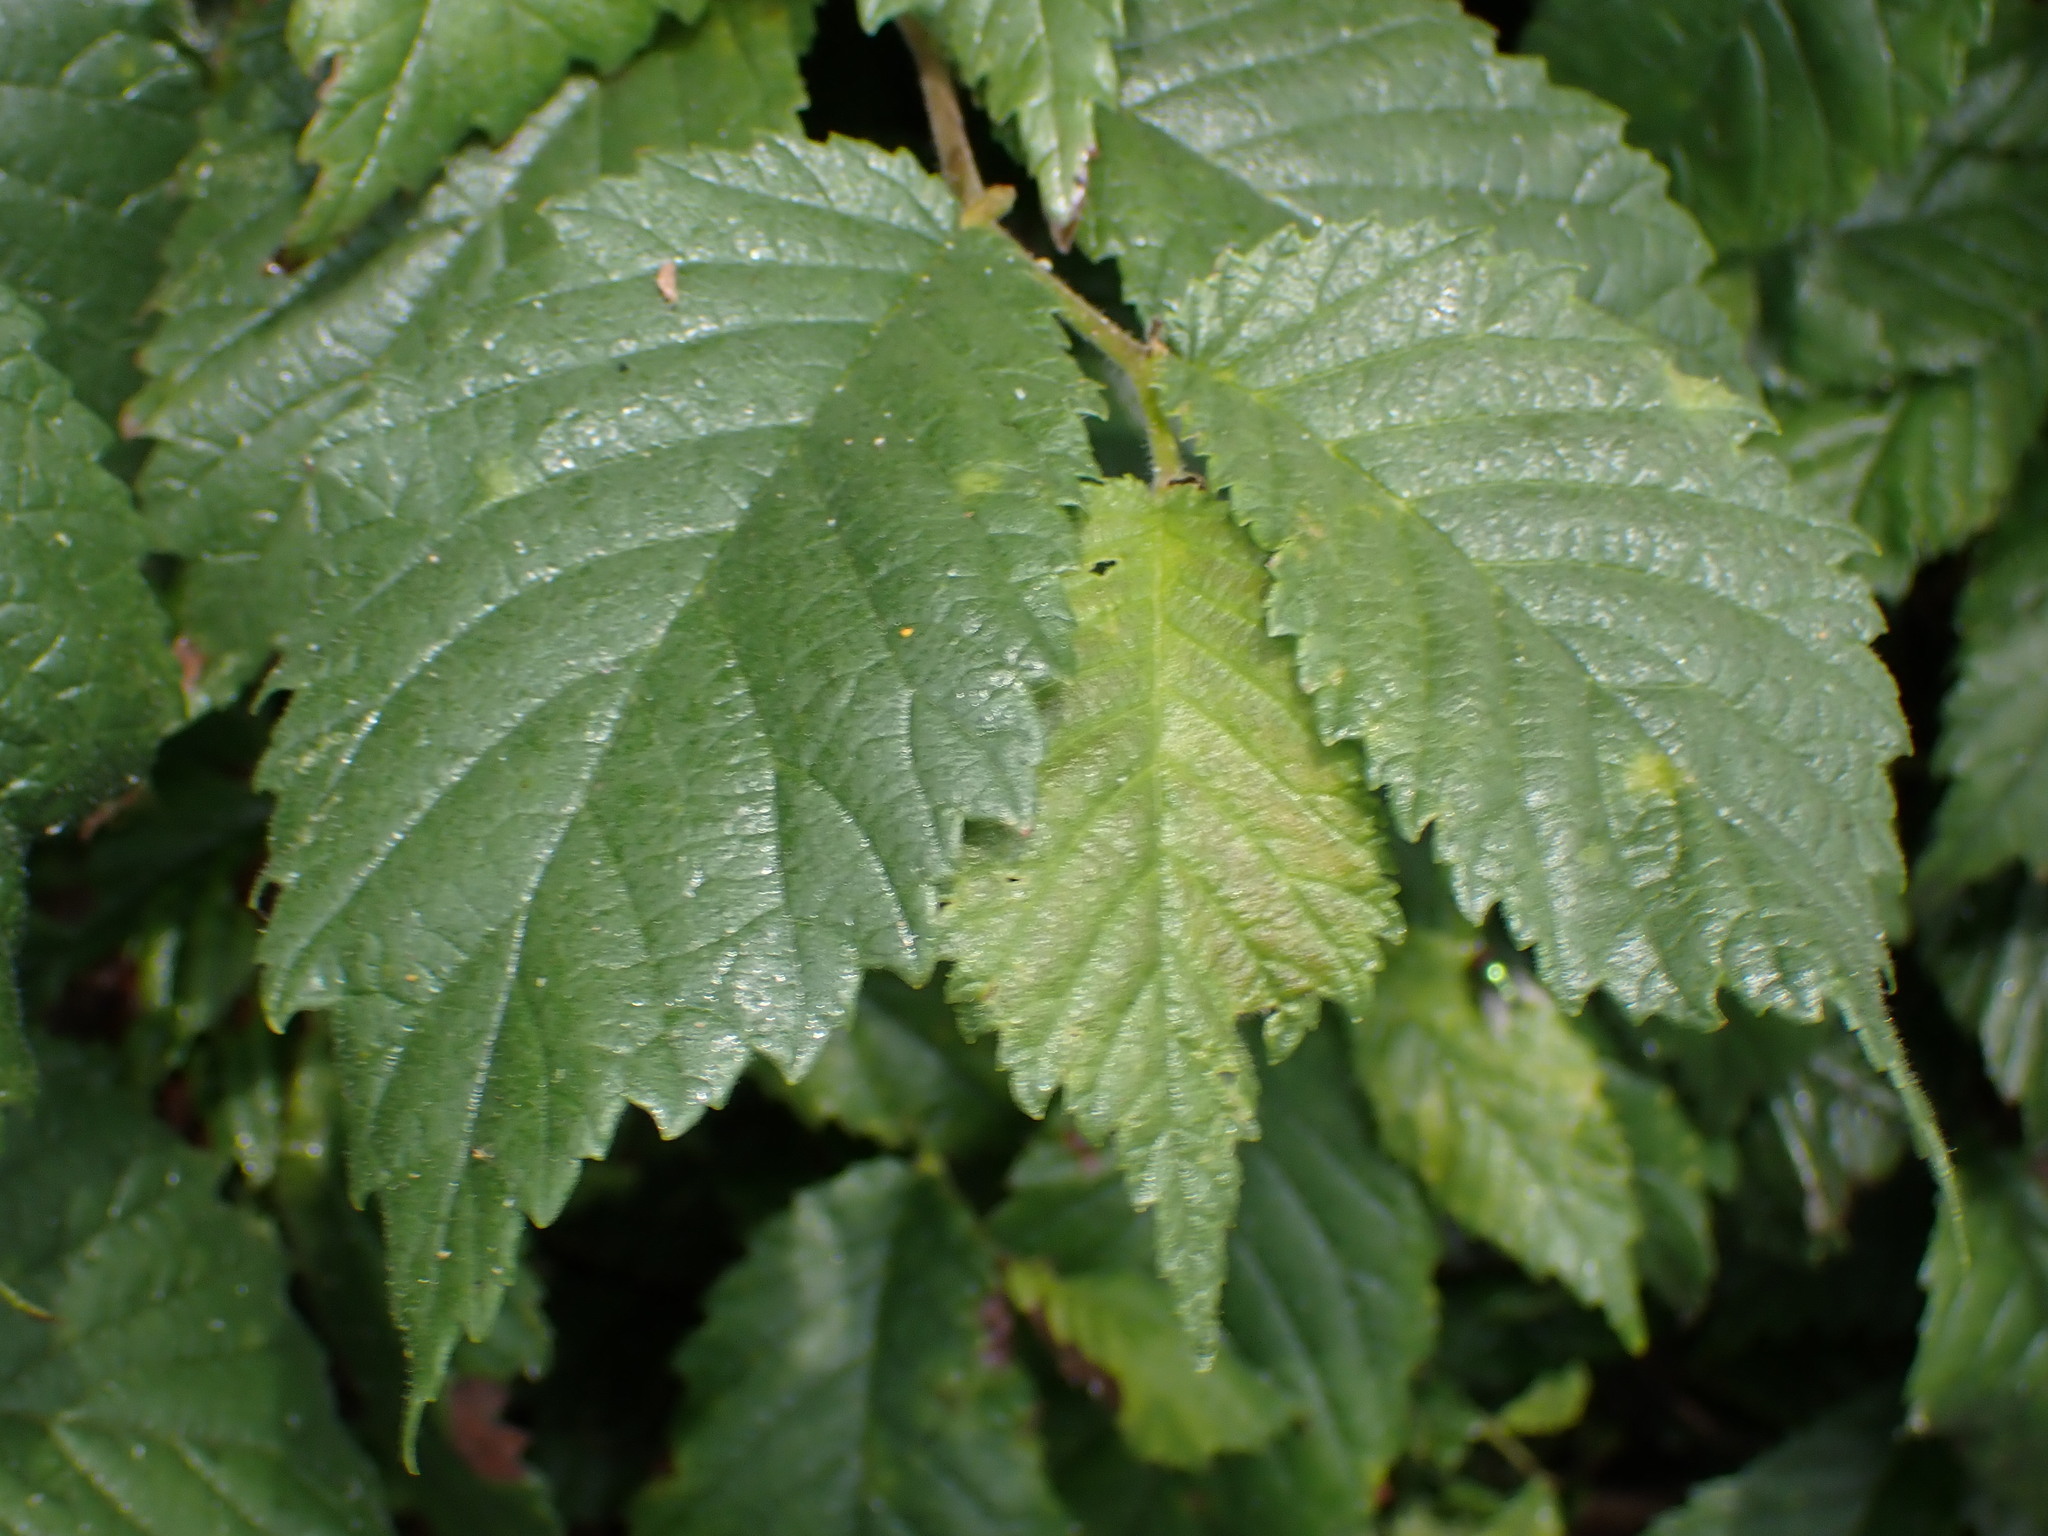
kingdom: Plantae
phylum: Tracheophyta
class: Magnoliopsida
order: Rosales
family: Ulmaceae
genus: Ulmus
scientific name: Ulmus glabra
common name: Wych elm
